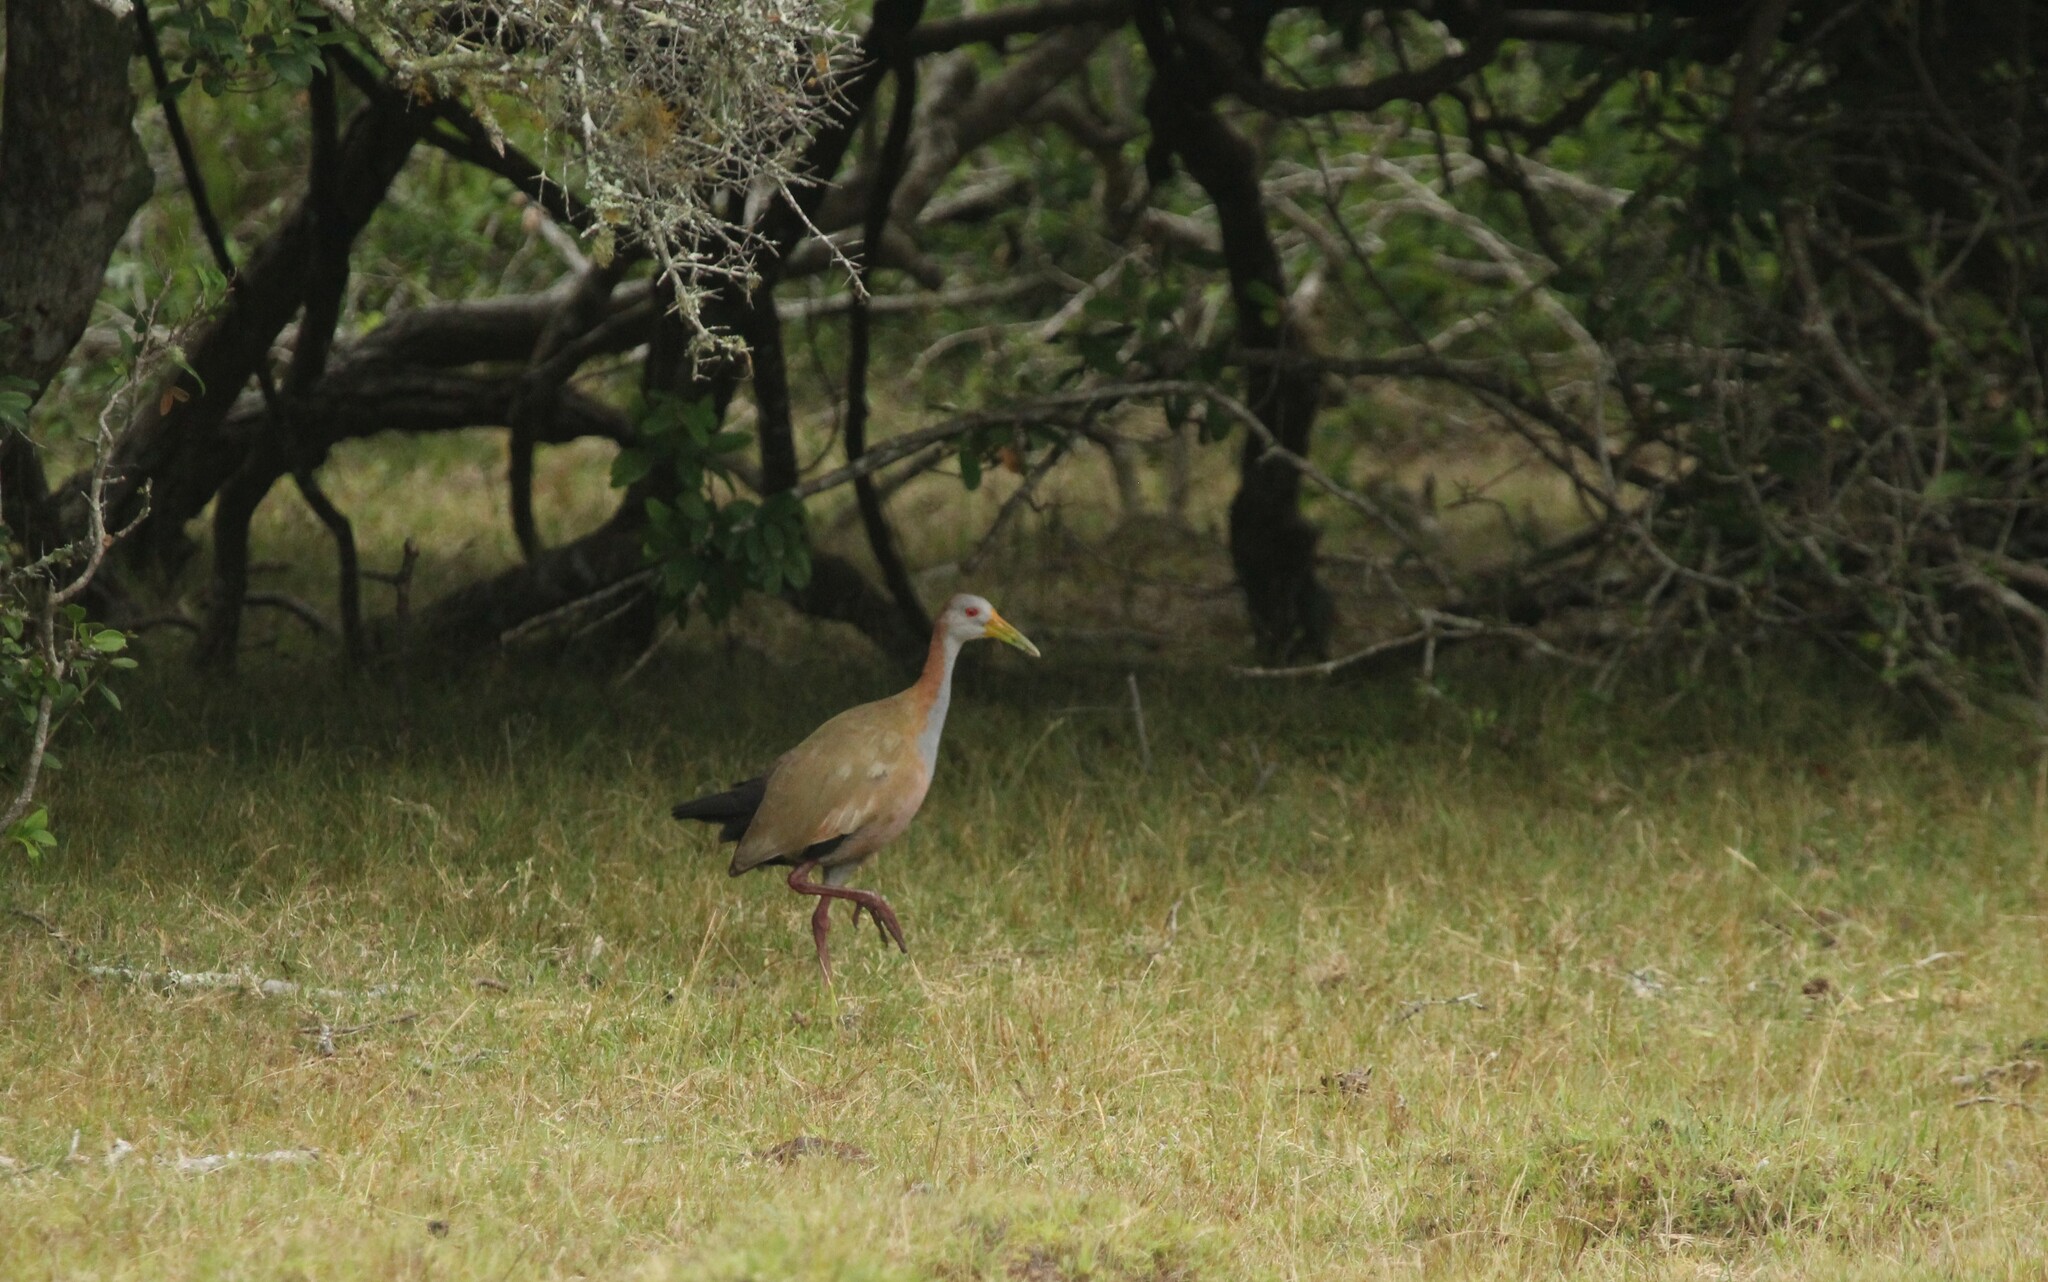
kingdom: Animalia
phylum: Chordata
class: Aves
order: Gruiformes
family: Rallidae
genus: Aramides
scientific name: Aramides ypecaha
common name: Giant wood rail
